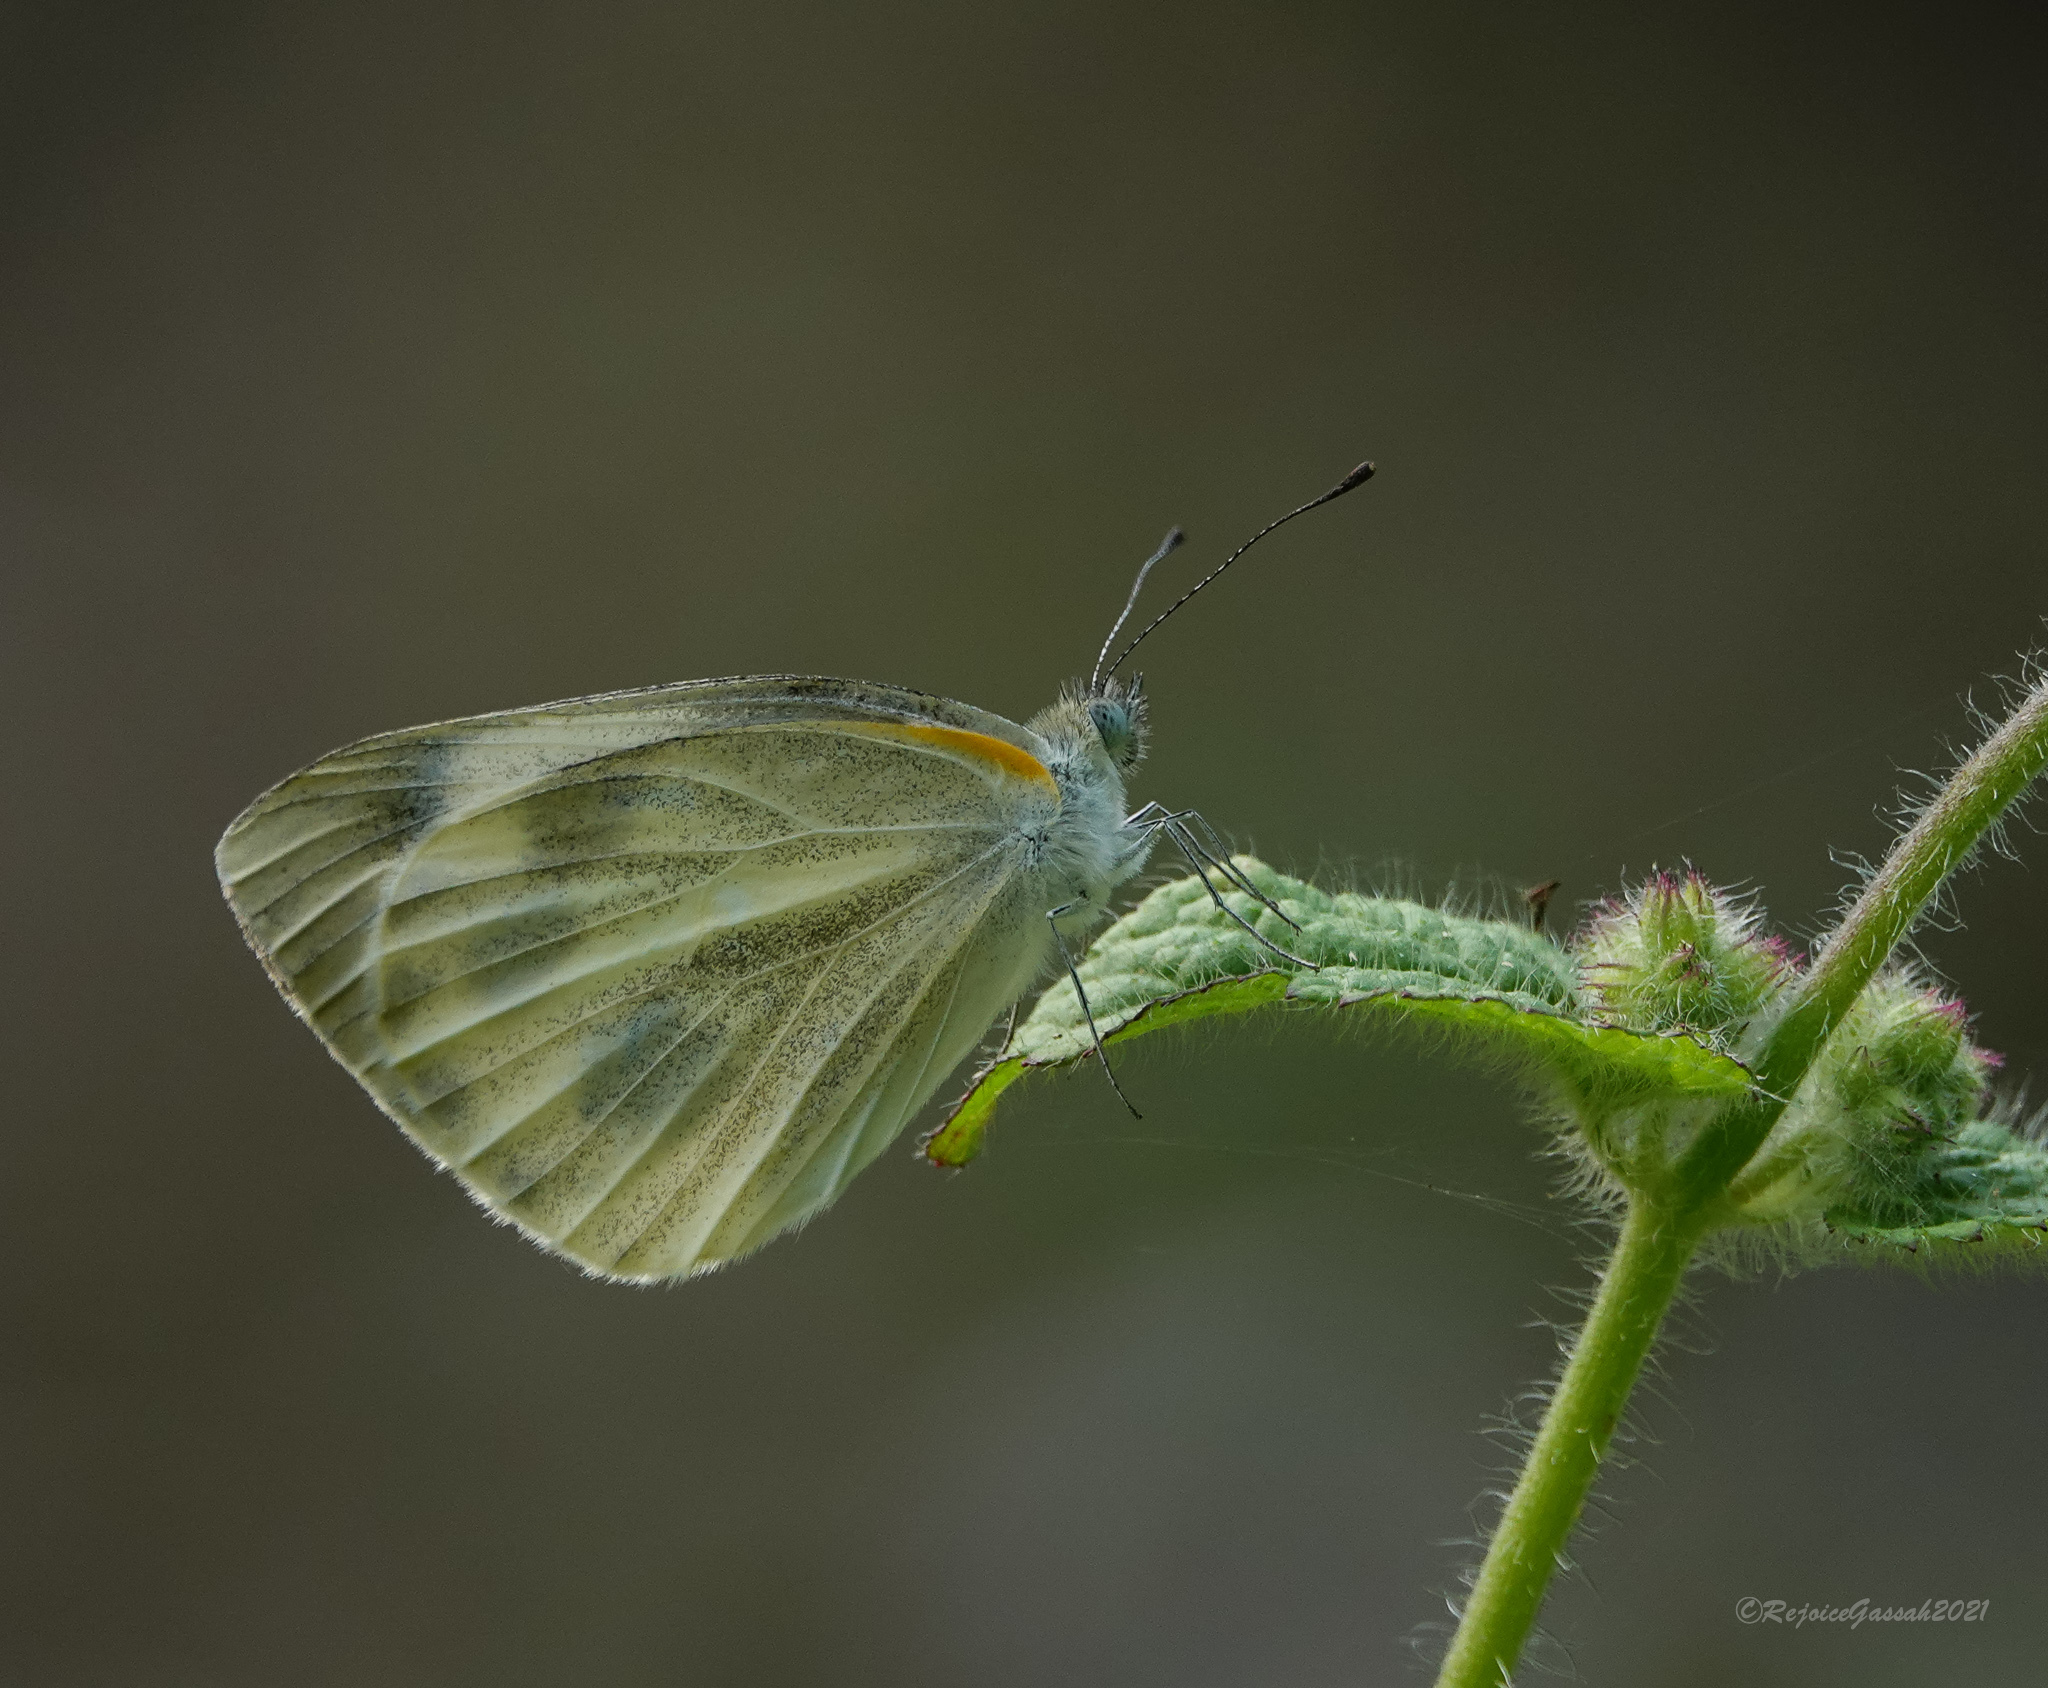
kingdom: Animalia
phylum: Arthropoda
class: Insecta
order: Lepidoptera
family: Pieridae
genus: Pieris
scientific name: Pieris canidia
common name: Indian cabbage white
